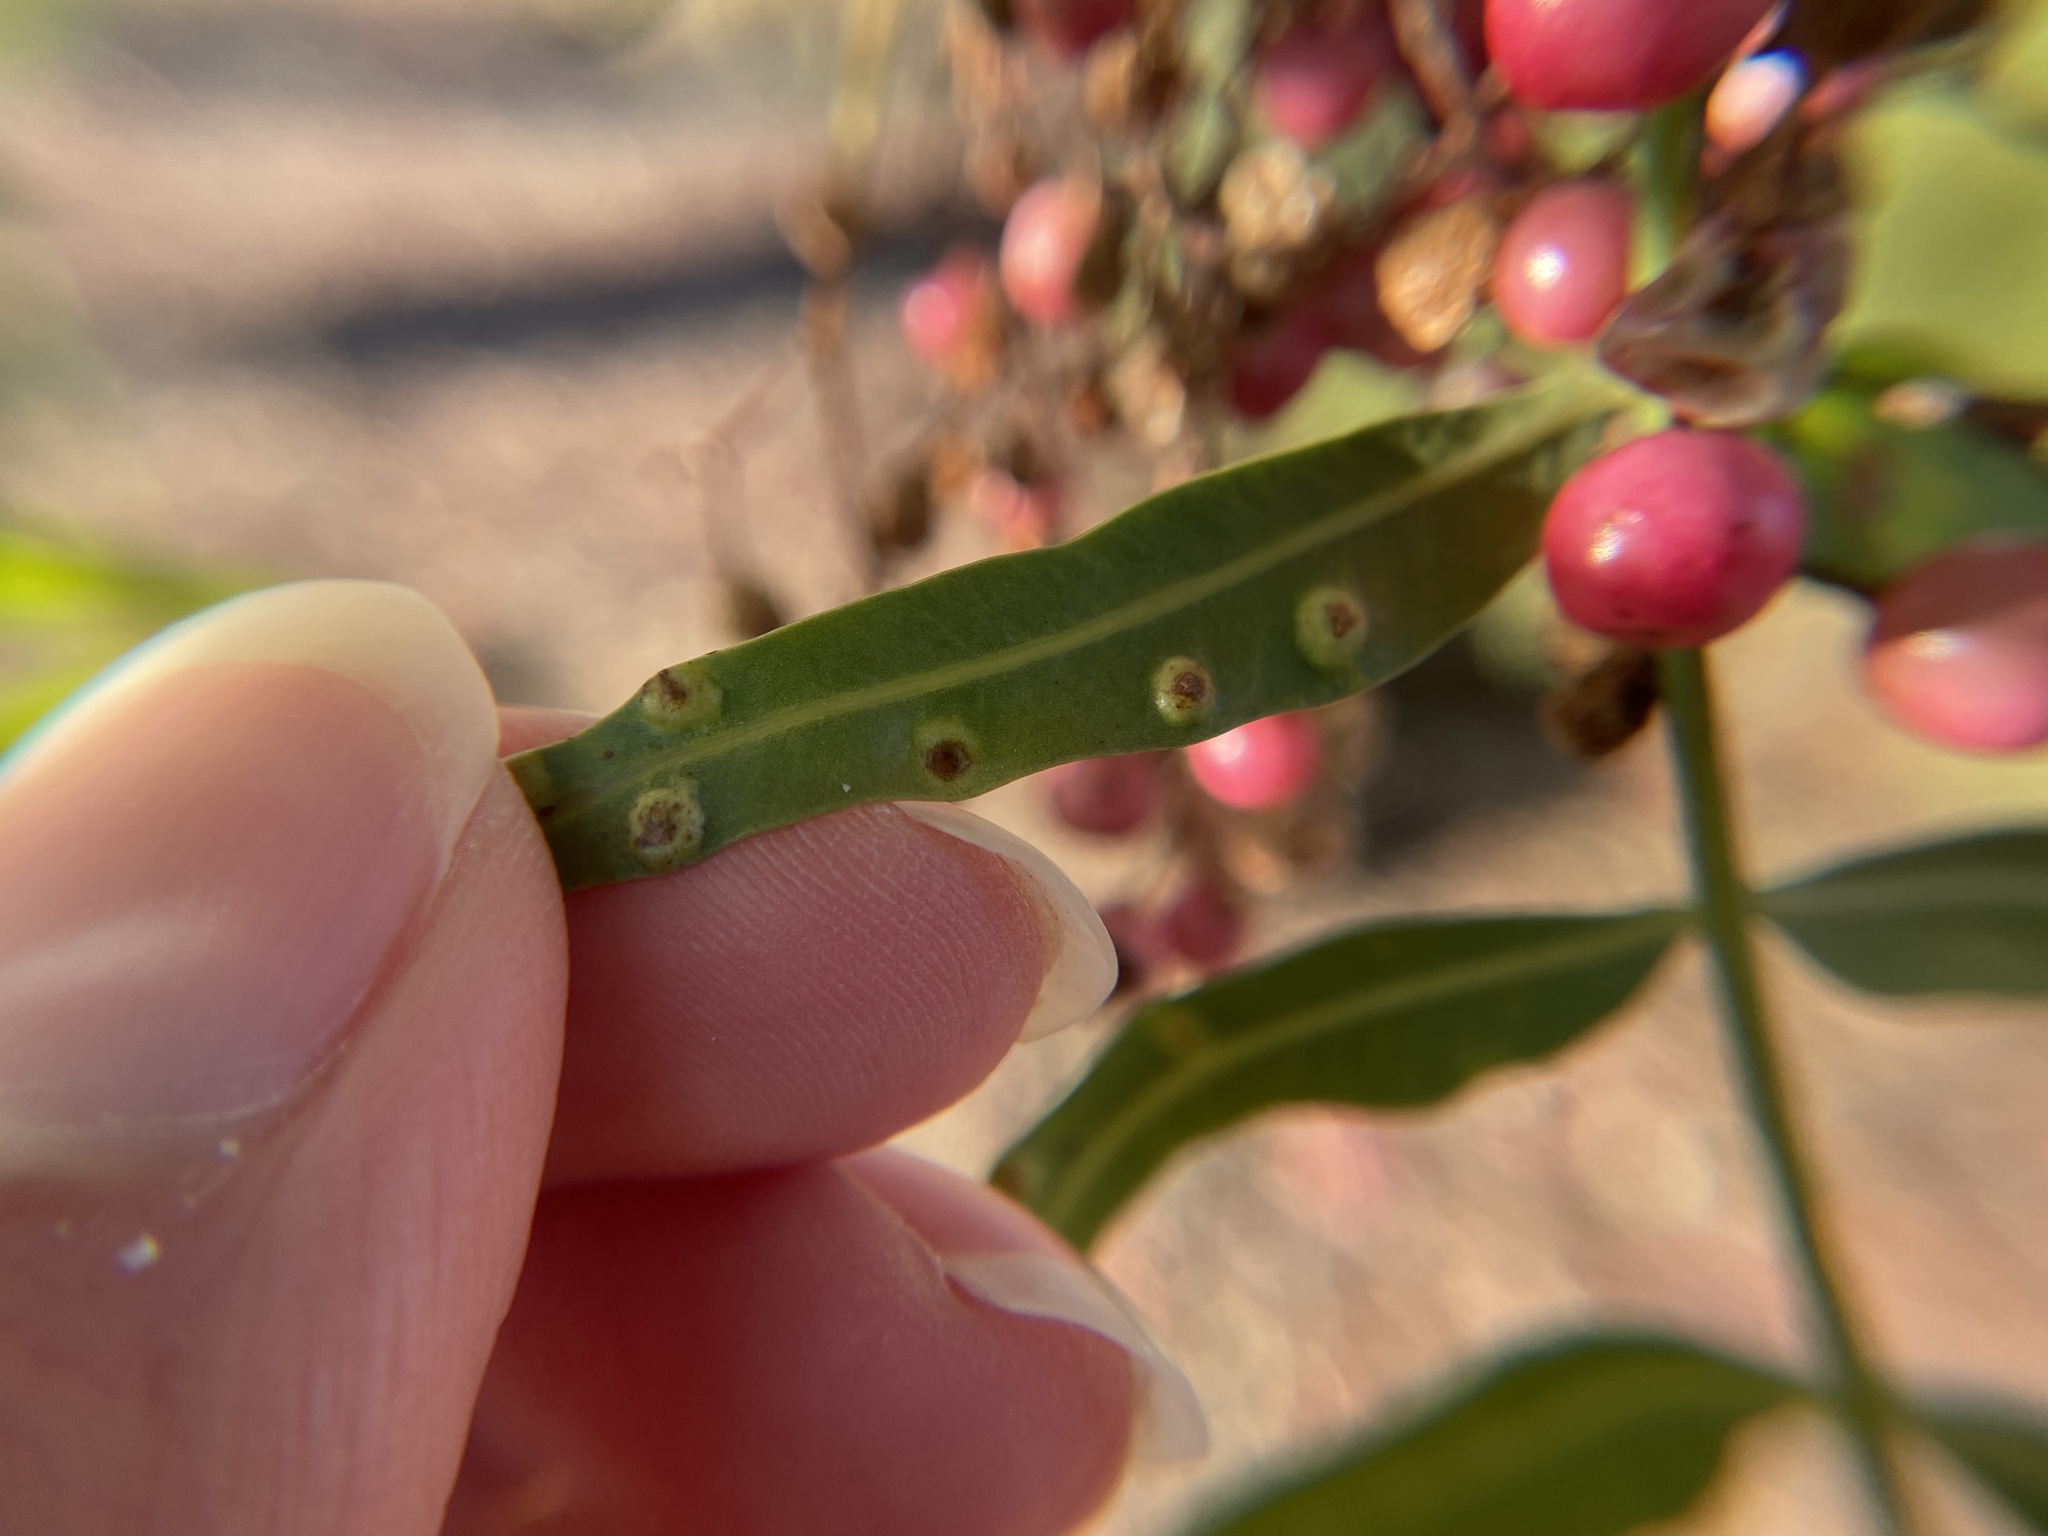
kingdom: Animalia
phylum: Arthropoda
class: Insecta
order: Hemiptera
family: Calophyidae
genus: Calophya
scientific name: Calophya schini
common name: Pepper tree psyllid
